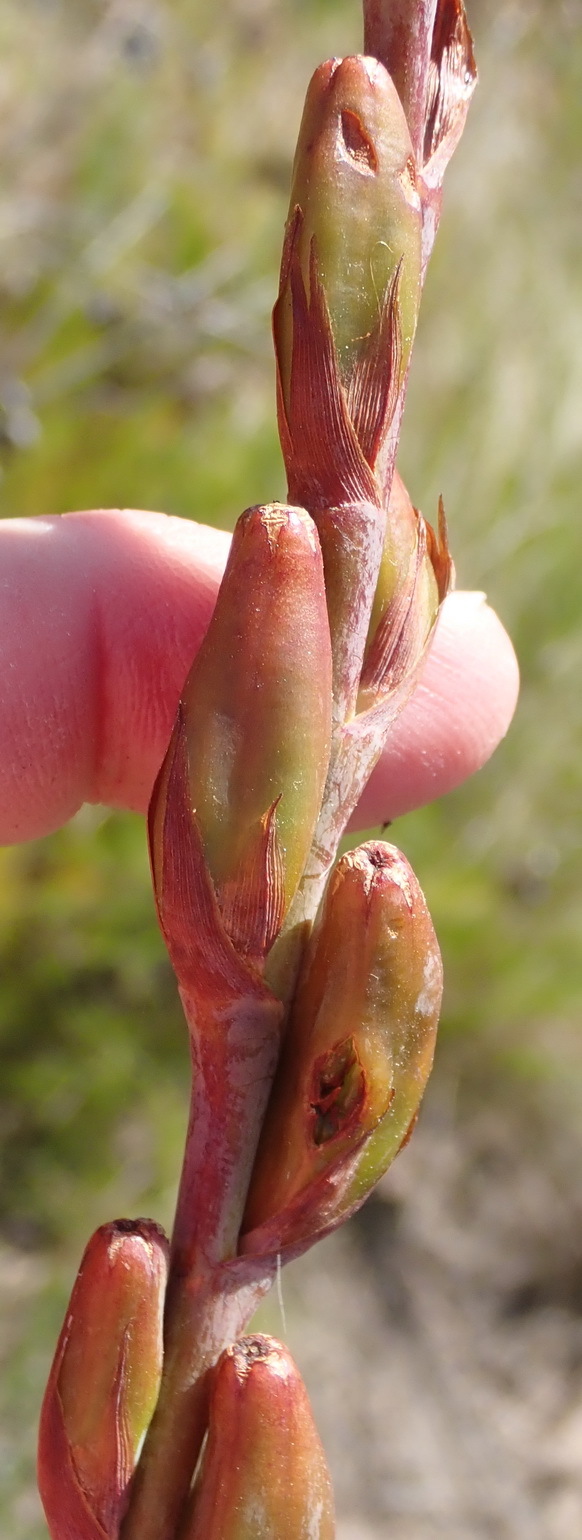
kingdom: Plantae
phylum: Tracheophyta
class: Liliopsida
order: Asparagales
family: Iridaceae
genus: Watsonia
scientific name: Watsonia pillansii
